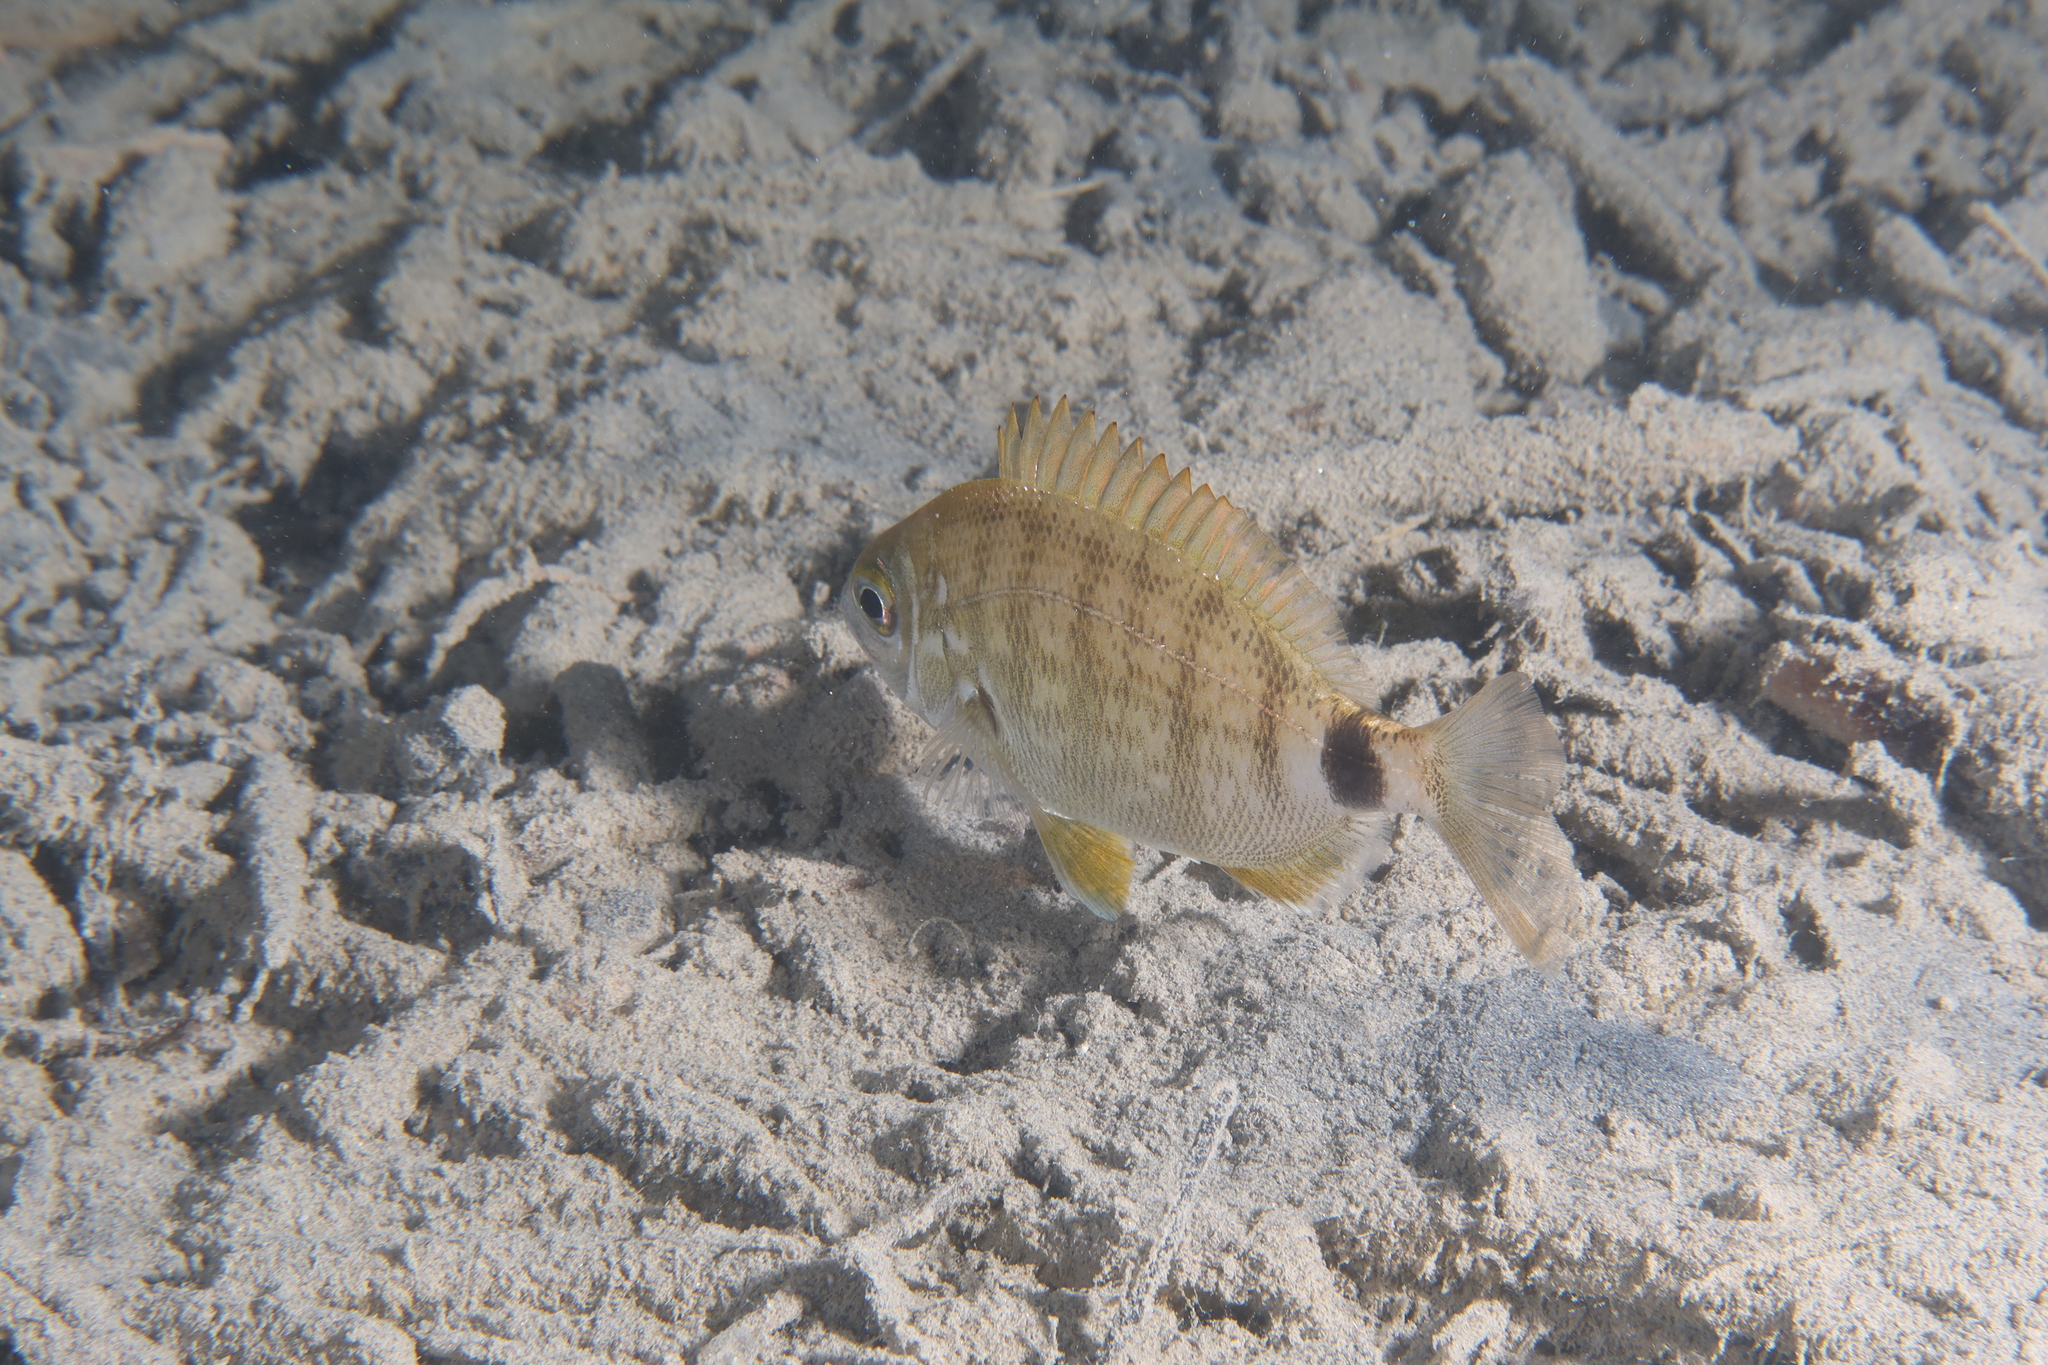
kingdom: Animalia
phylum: Chordata
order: Perciformes
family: Sparidae
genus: Diplodus
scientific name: Diplodus annularis
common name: Annular seabream
